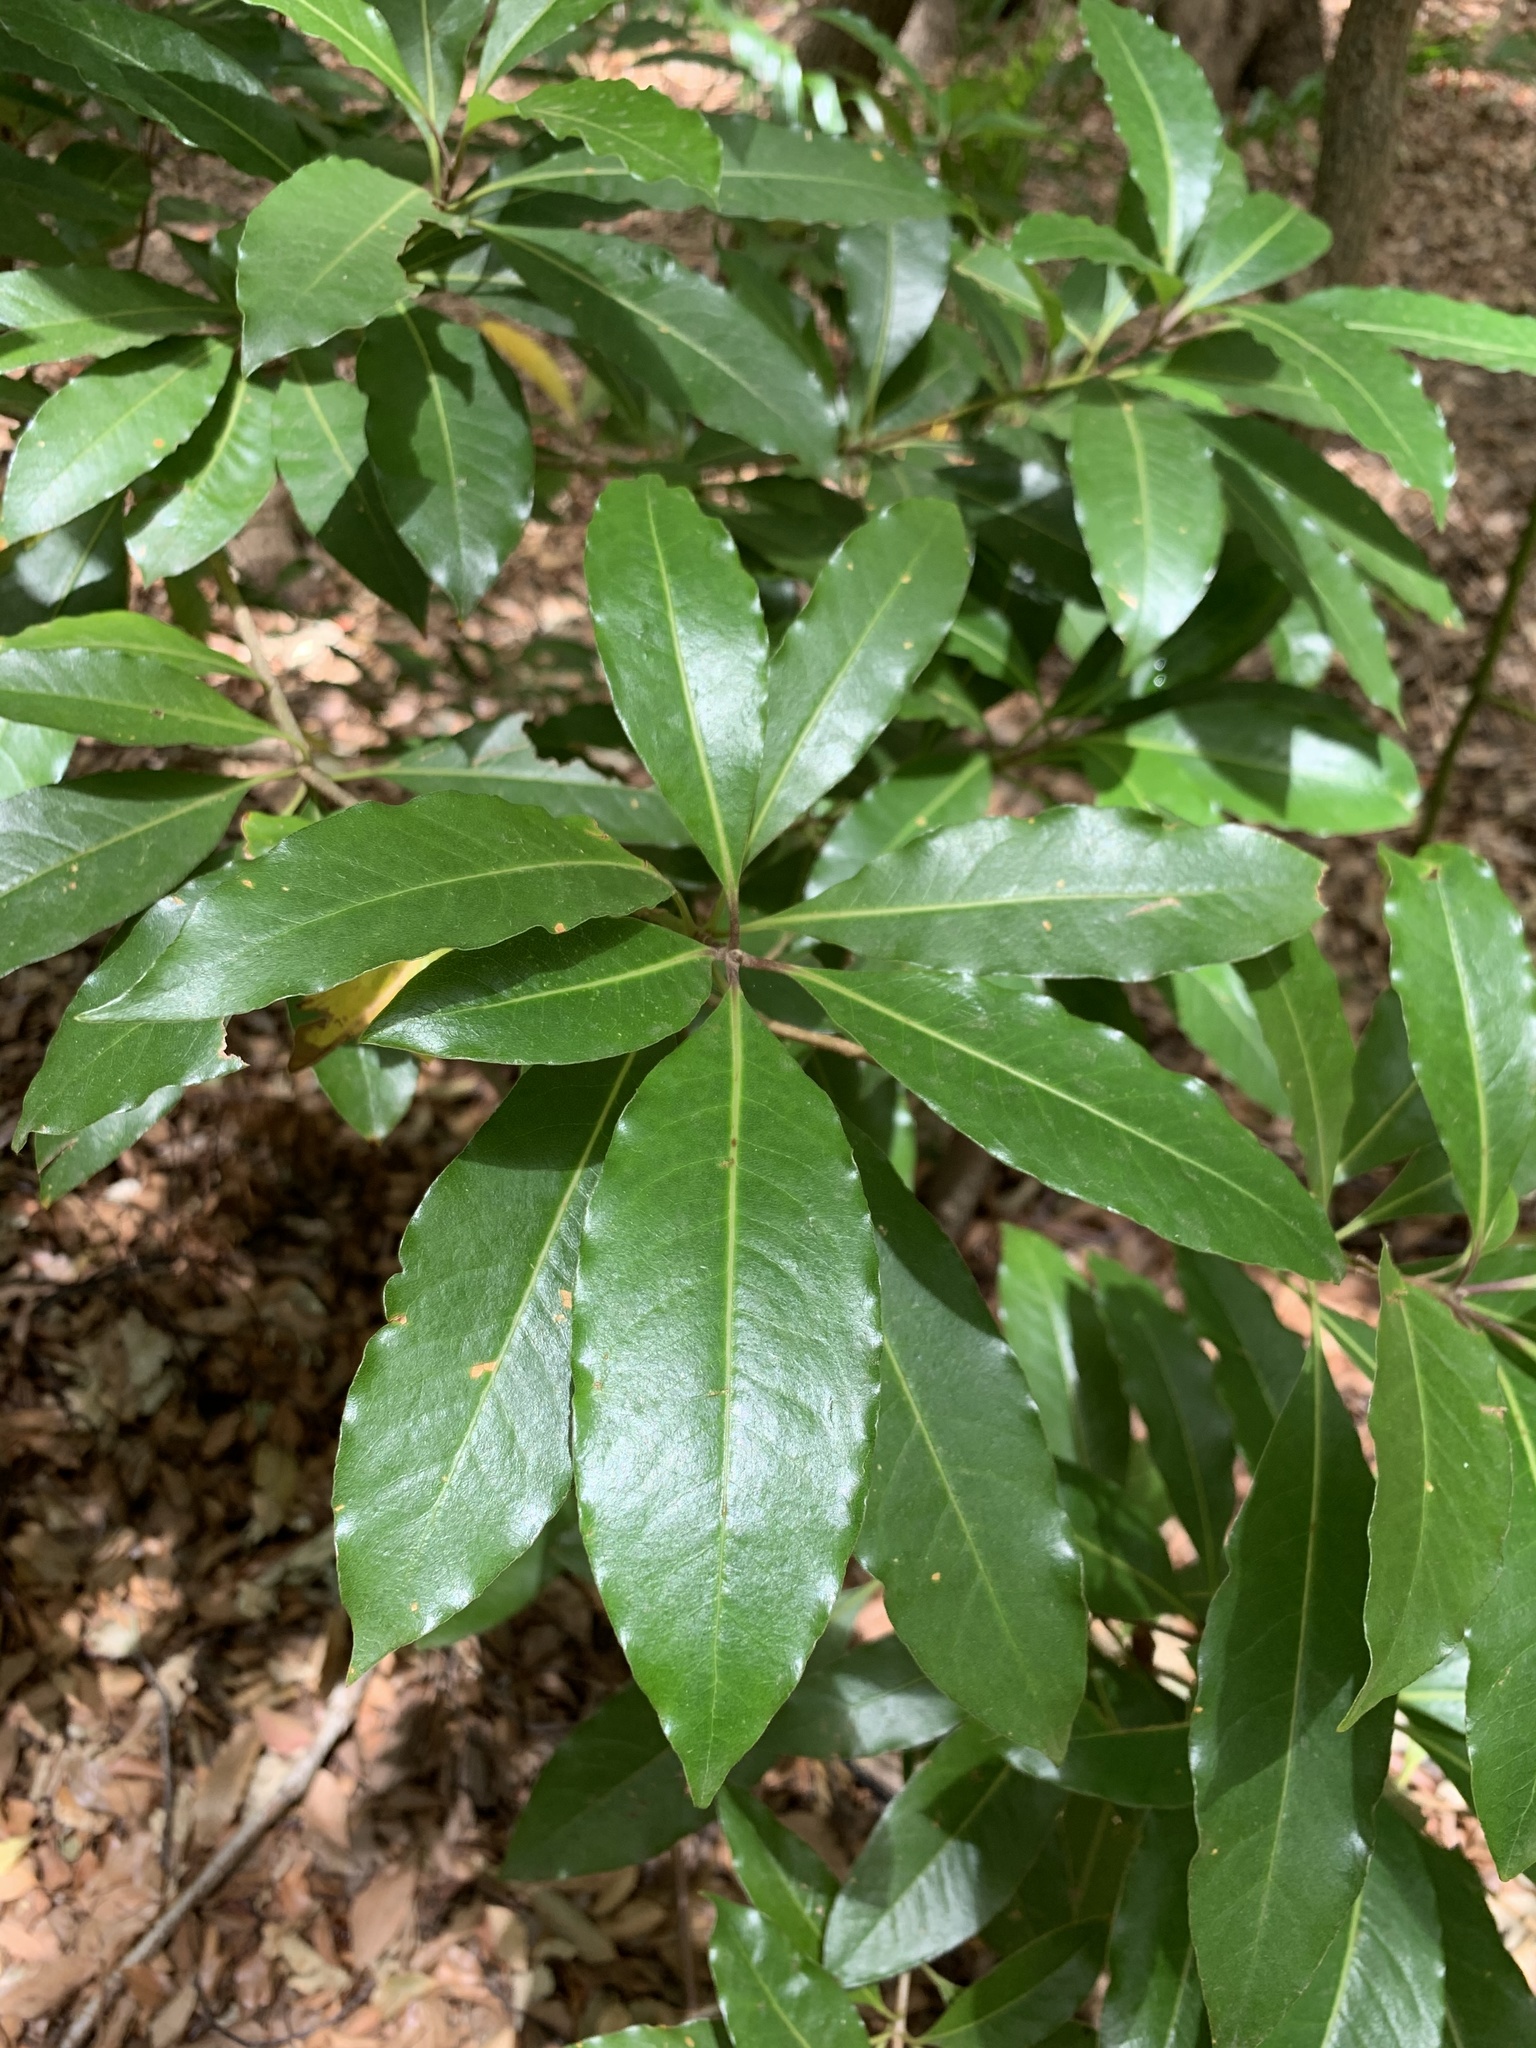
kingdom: Plantae
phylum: Tracheophyta
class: Magnoliopsida
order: Apiales
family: Pittosporaceae
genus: Pittosporum
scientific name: Pittosporum undulatum
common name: Australian cheesewood
